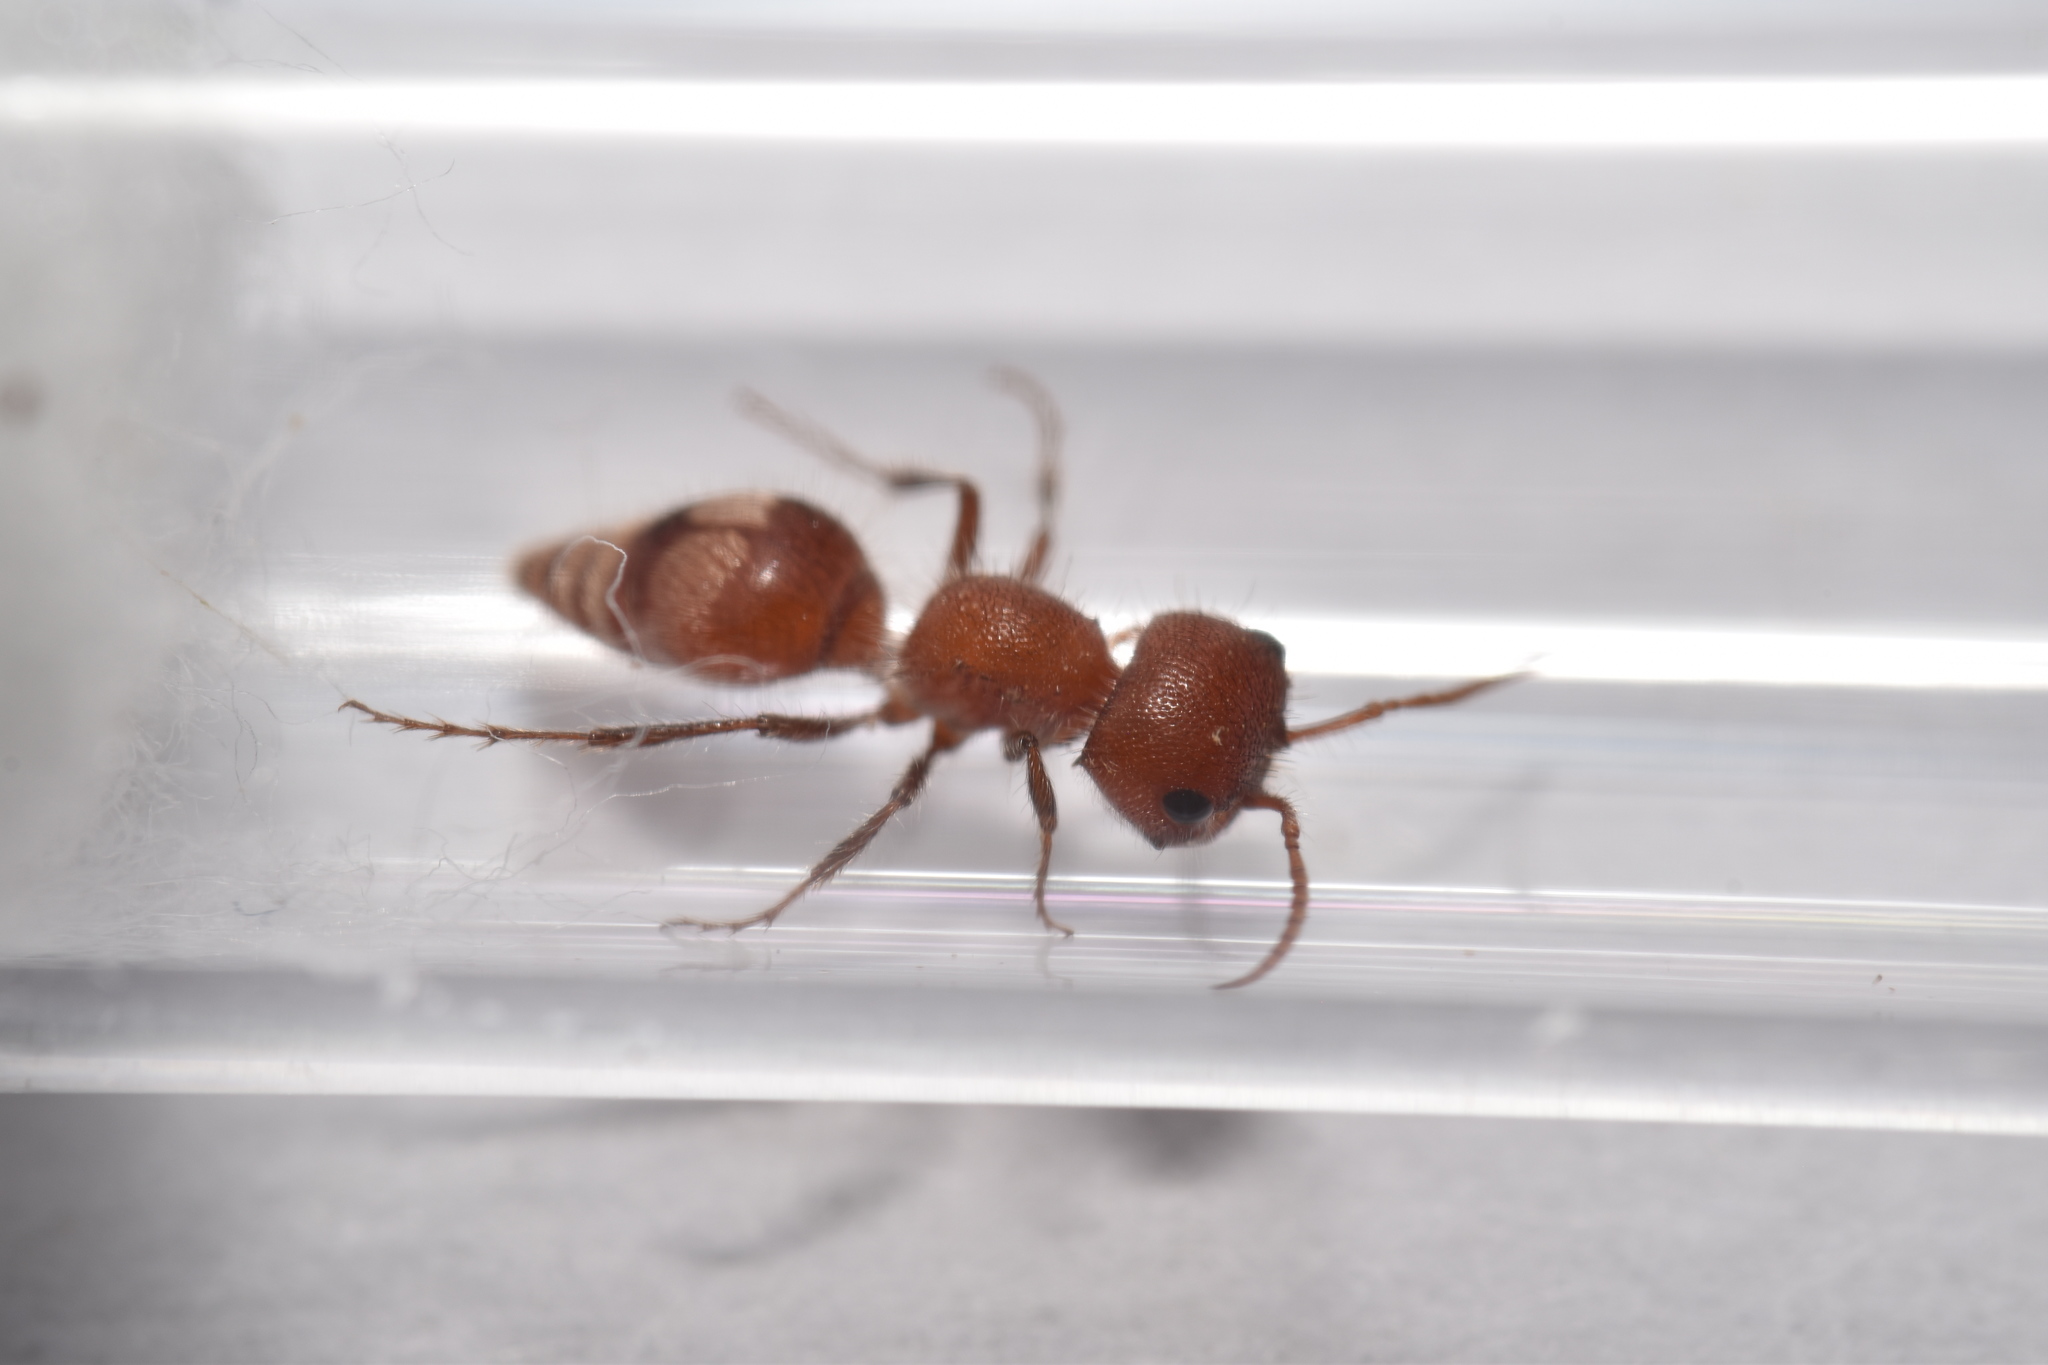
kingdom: Animalia
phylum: Arthropoda
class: Insecta
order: Hymenoptera
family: Mutillidae
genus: Myrmilloides
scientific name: Myrmilloides
